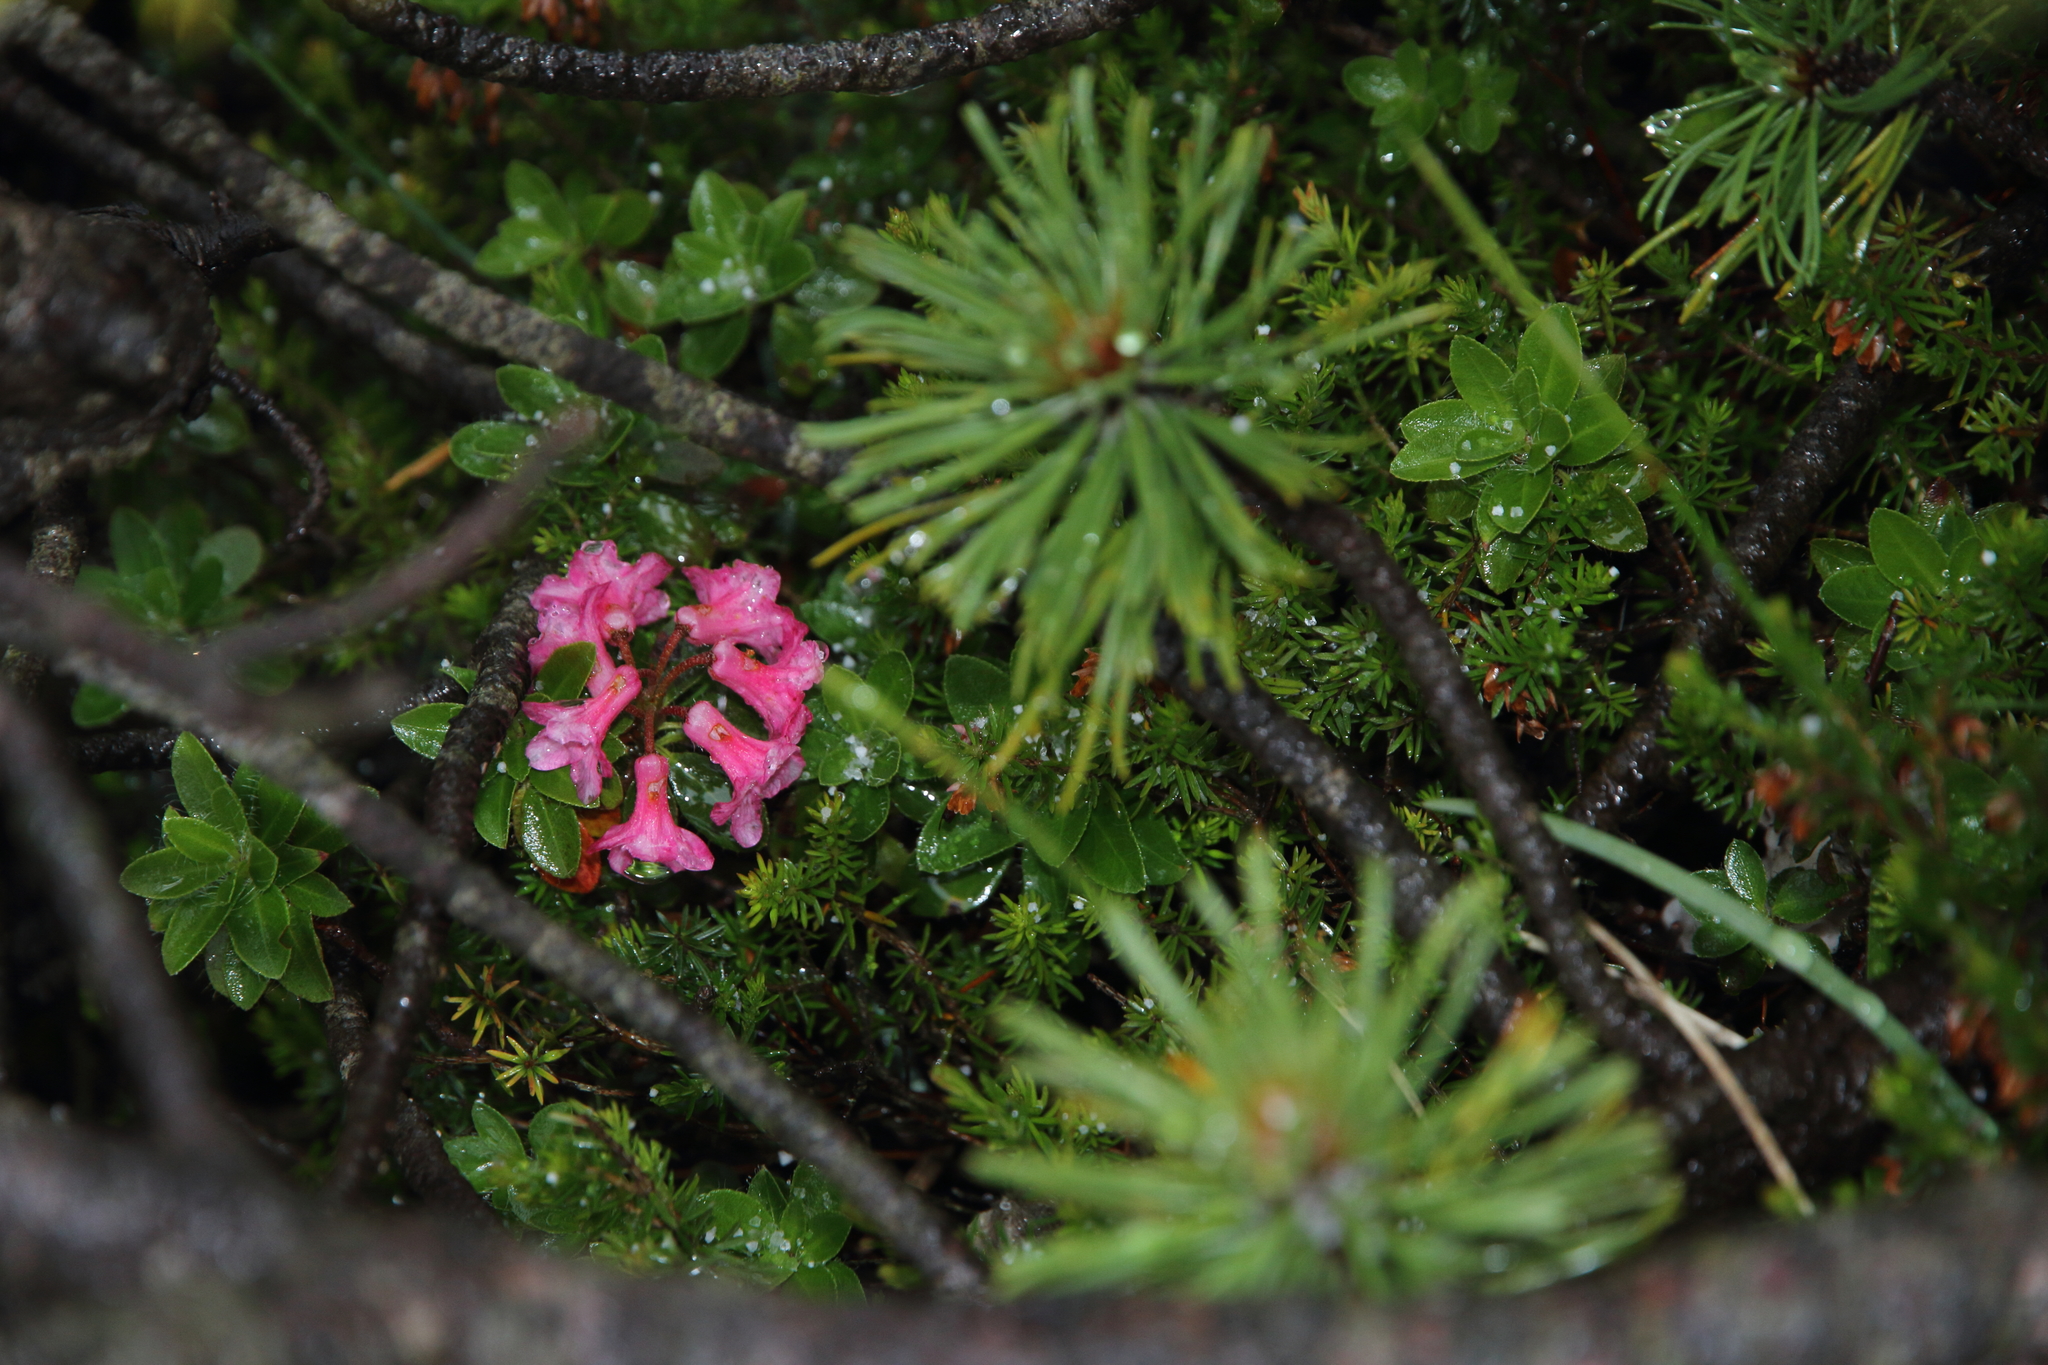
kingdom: Plantae
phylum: Tracheophyta
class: Magnoliopsida
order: Ericales
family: Ericaceae
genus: Rhododendron
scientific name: Rhododendron hirsutum
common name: Hairy alpenrose
